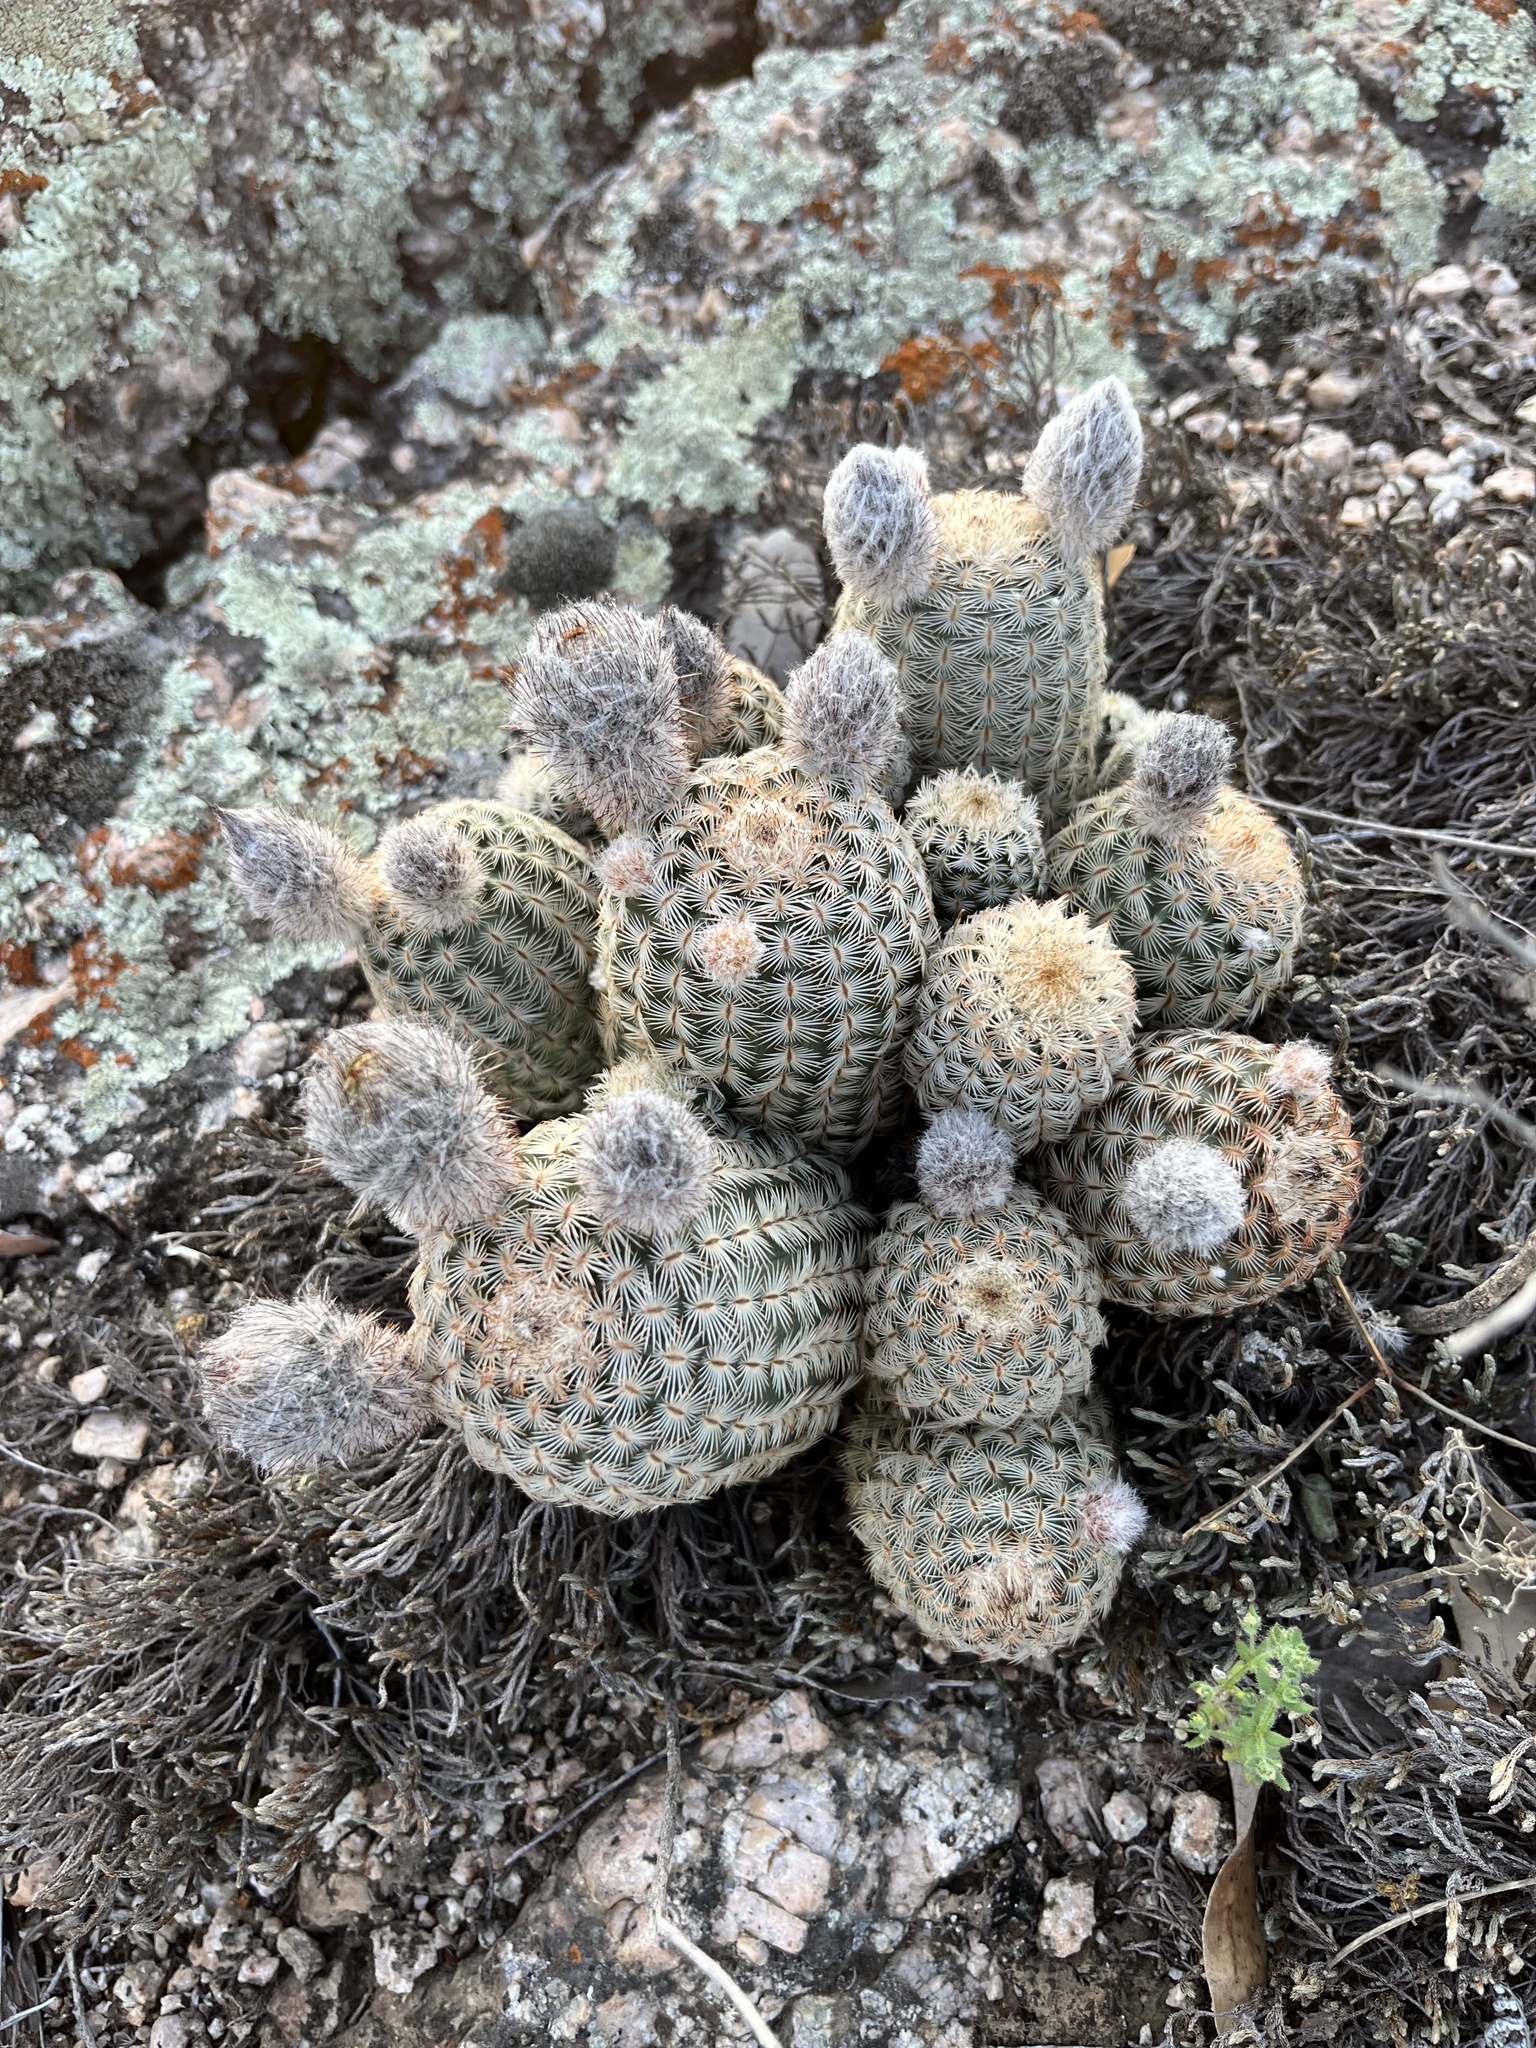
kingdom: Plantae
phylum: Tracheophyta
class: Magnoliopsida
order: Caryophyllales
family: Cactaceae
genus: Echinocereus
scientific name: Echinocereus reichenbachii
